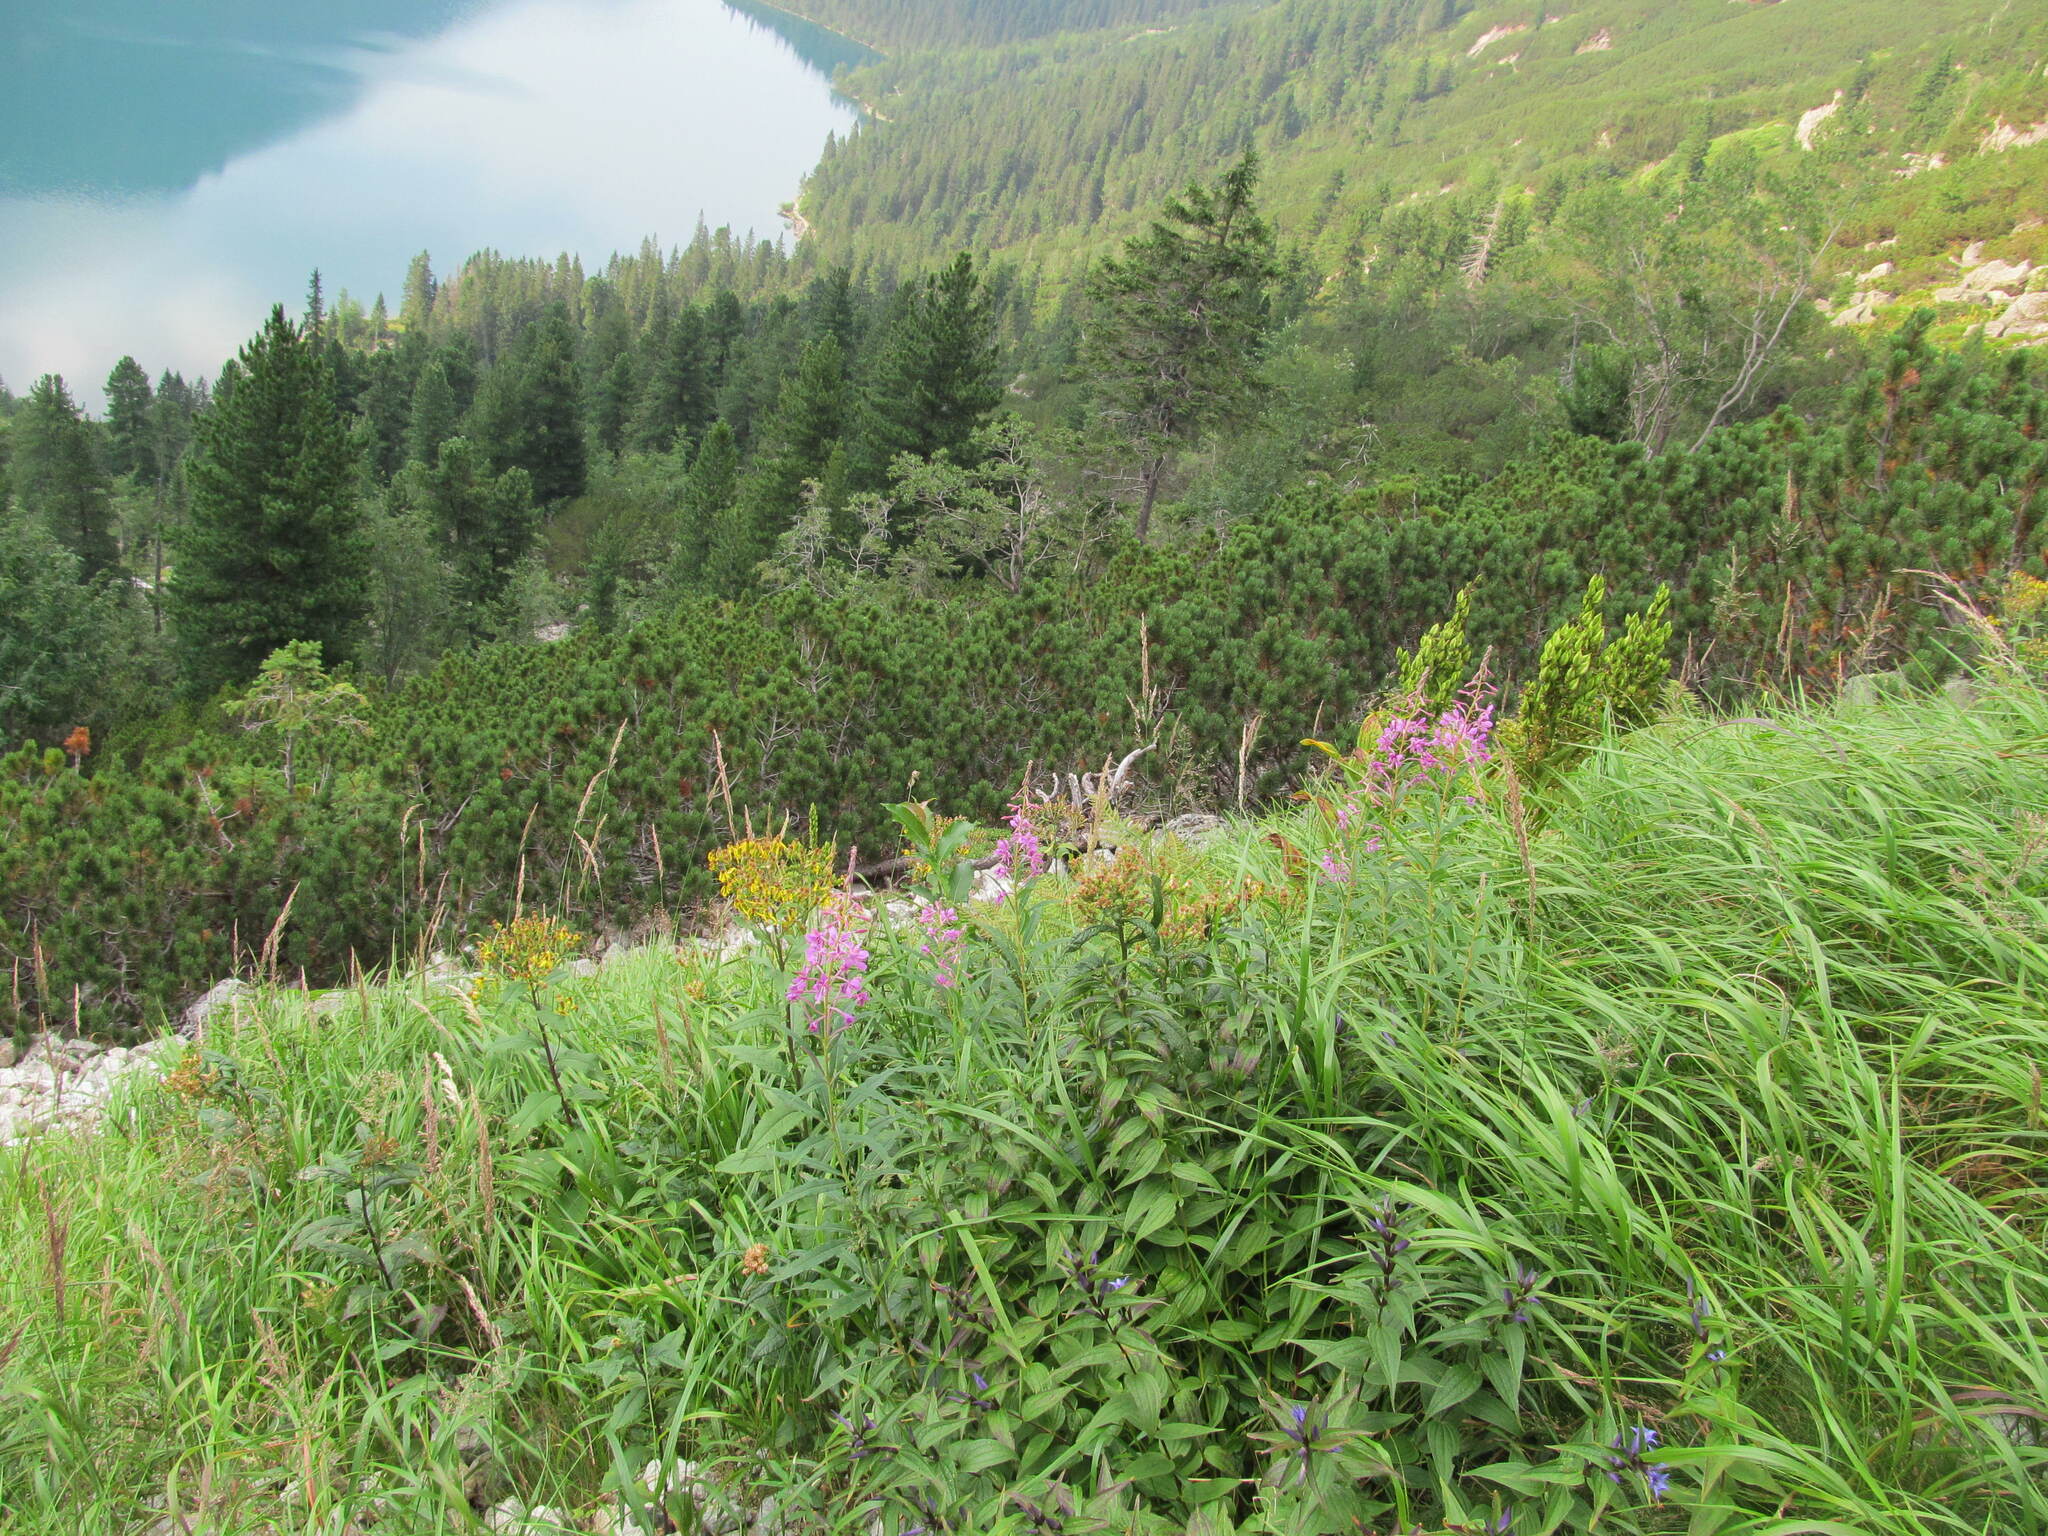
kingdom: Plantae
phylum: Tracheophyta
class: Magnoliopsida
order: Myrtales
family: Onagraceae
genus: Chamaenerion
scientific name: Chamaenerion angustifolium
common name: Fireweed
